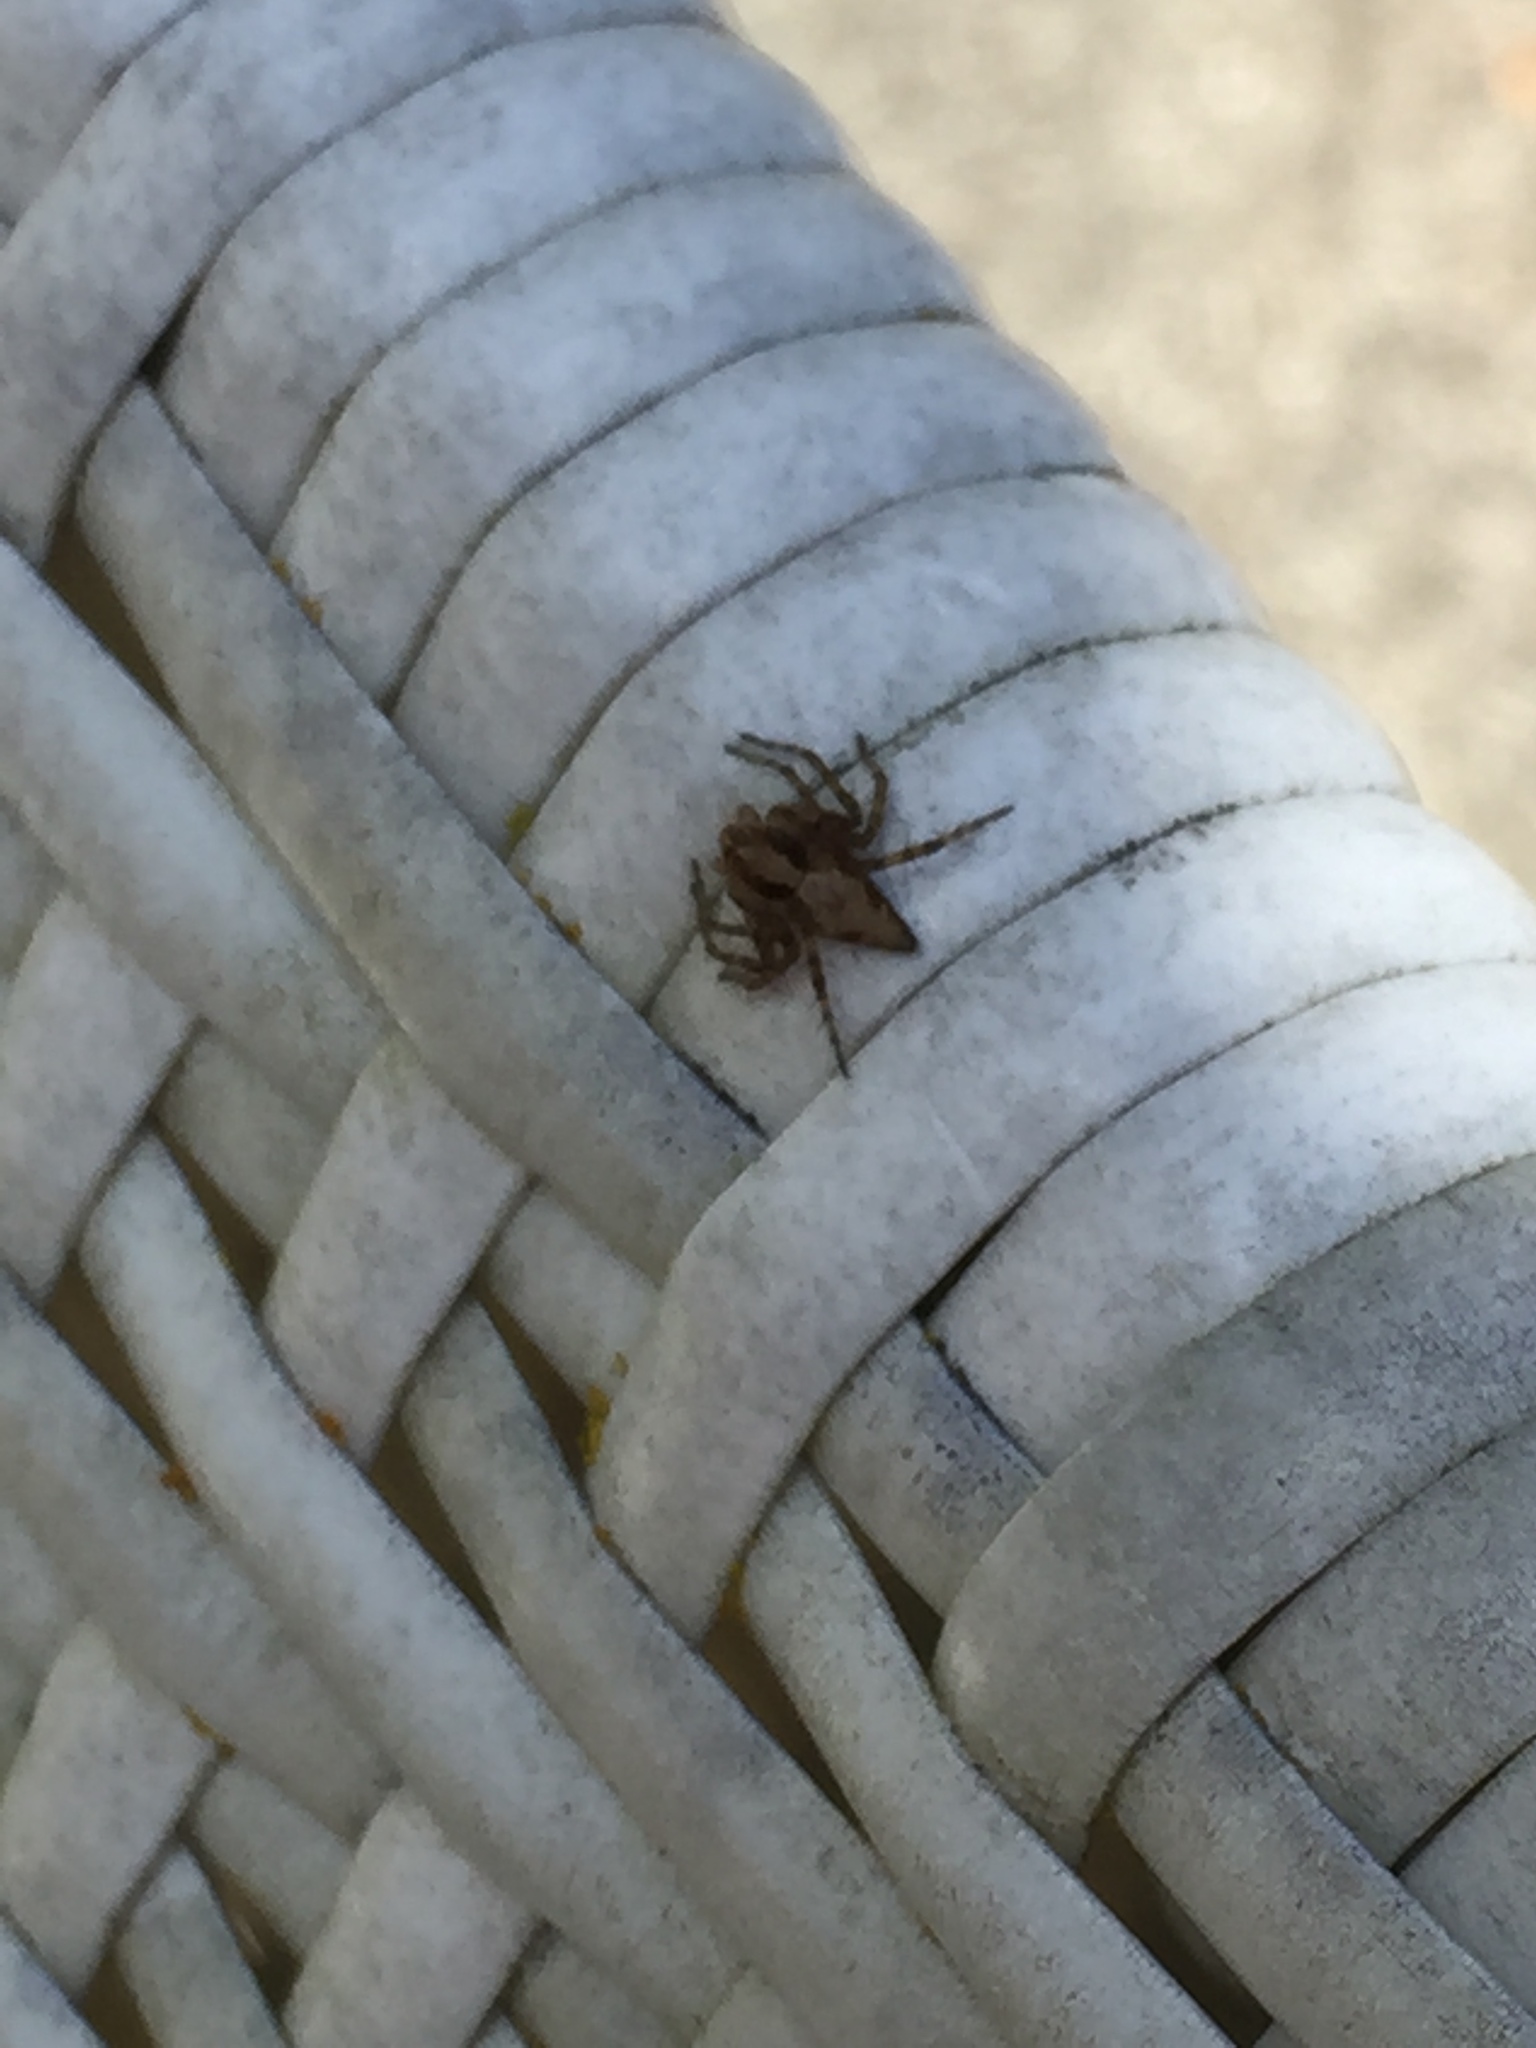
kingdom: Animalia
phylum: Arthropoda
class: Arachnida
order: Araneae
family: Oxyopidae
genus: Oxyopes
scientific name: Oxyopes scalaris
